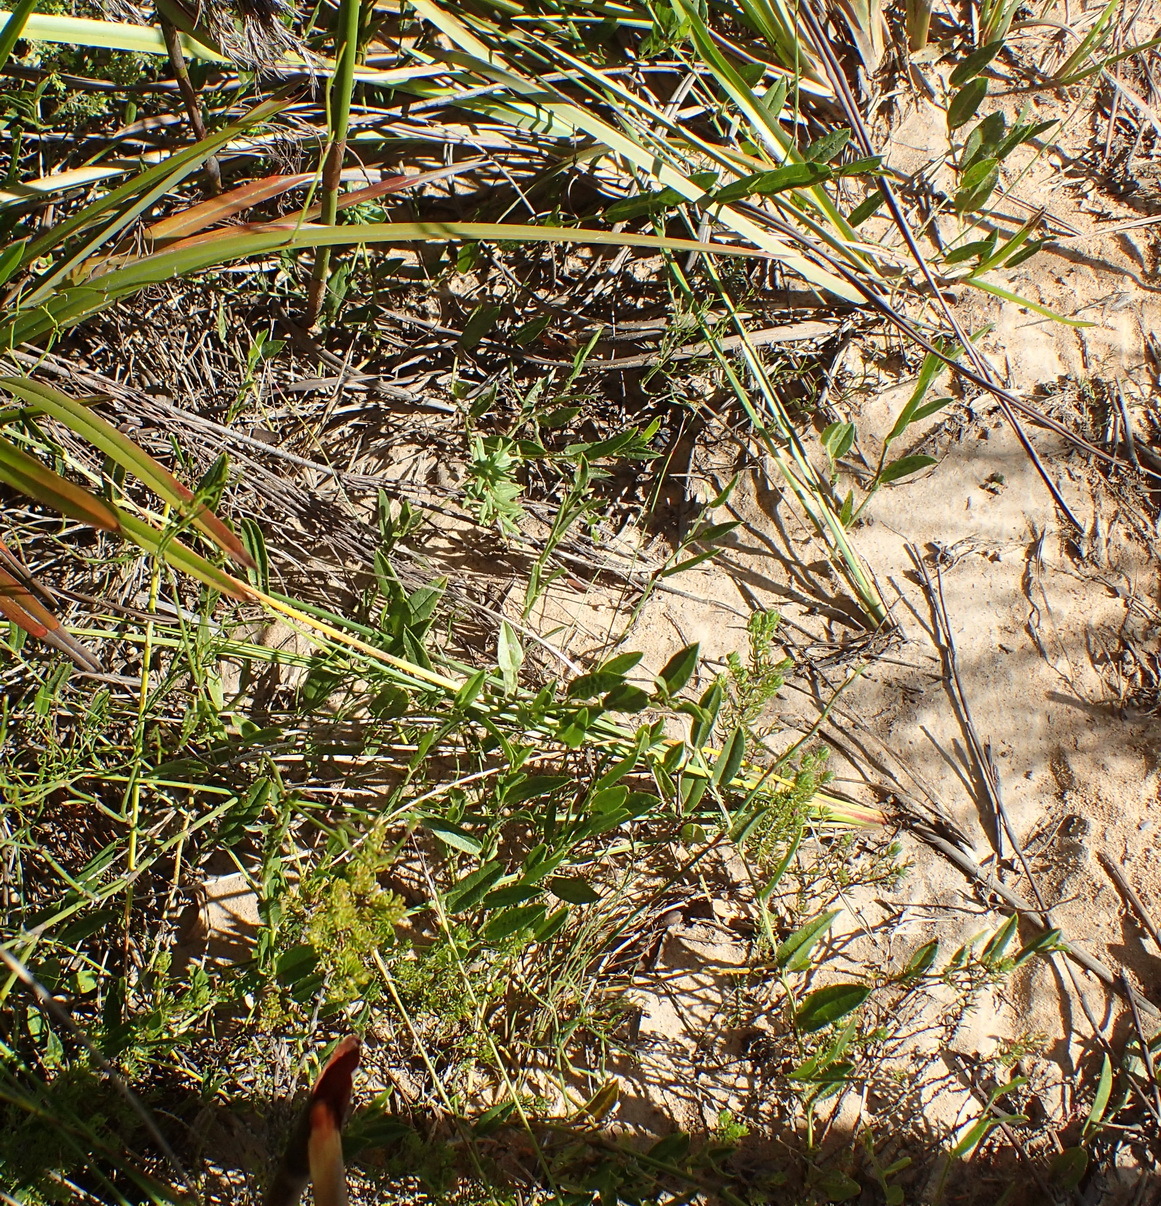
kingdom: Plantae
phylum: Tracheophyta
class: Magnoliopsida
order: Fabales
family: Fabaceae
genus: Psoralea
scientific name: Psoralea plauta
